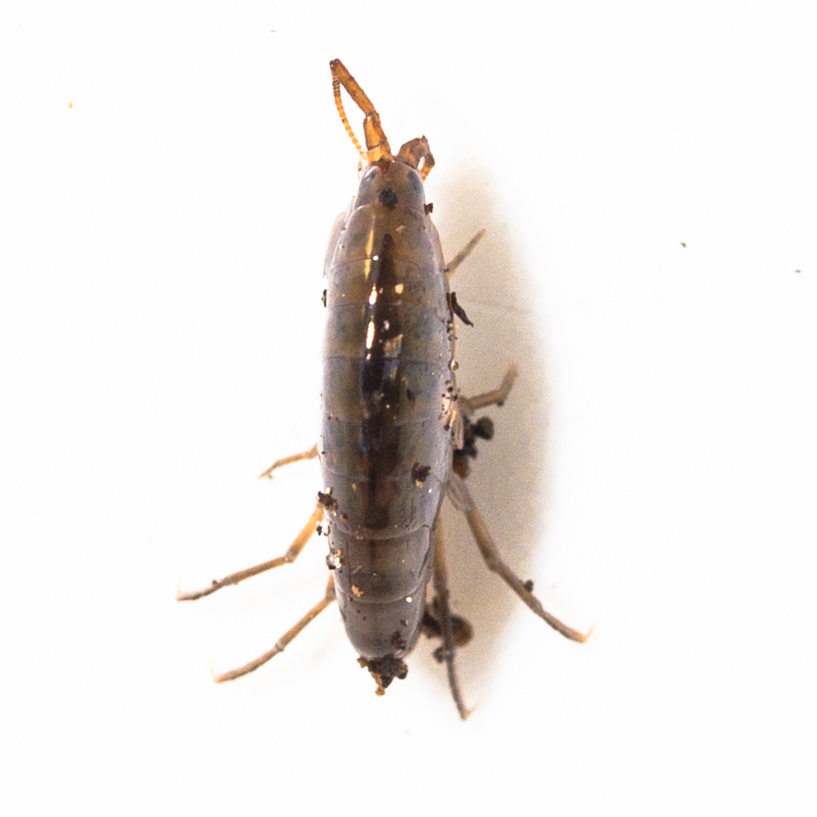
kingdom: Animalia
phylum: Arthropoda
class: Malacostraca
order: Amphipoda
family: Arcitalitridae
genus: Arcitalitrus
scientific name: Arcitalitrus sylvaticus
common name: Gammarid amphipod
